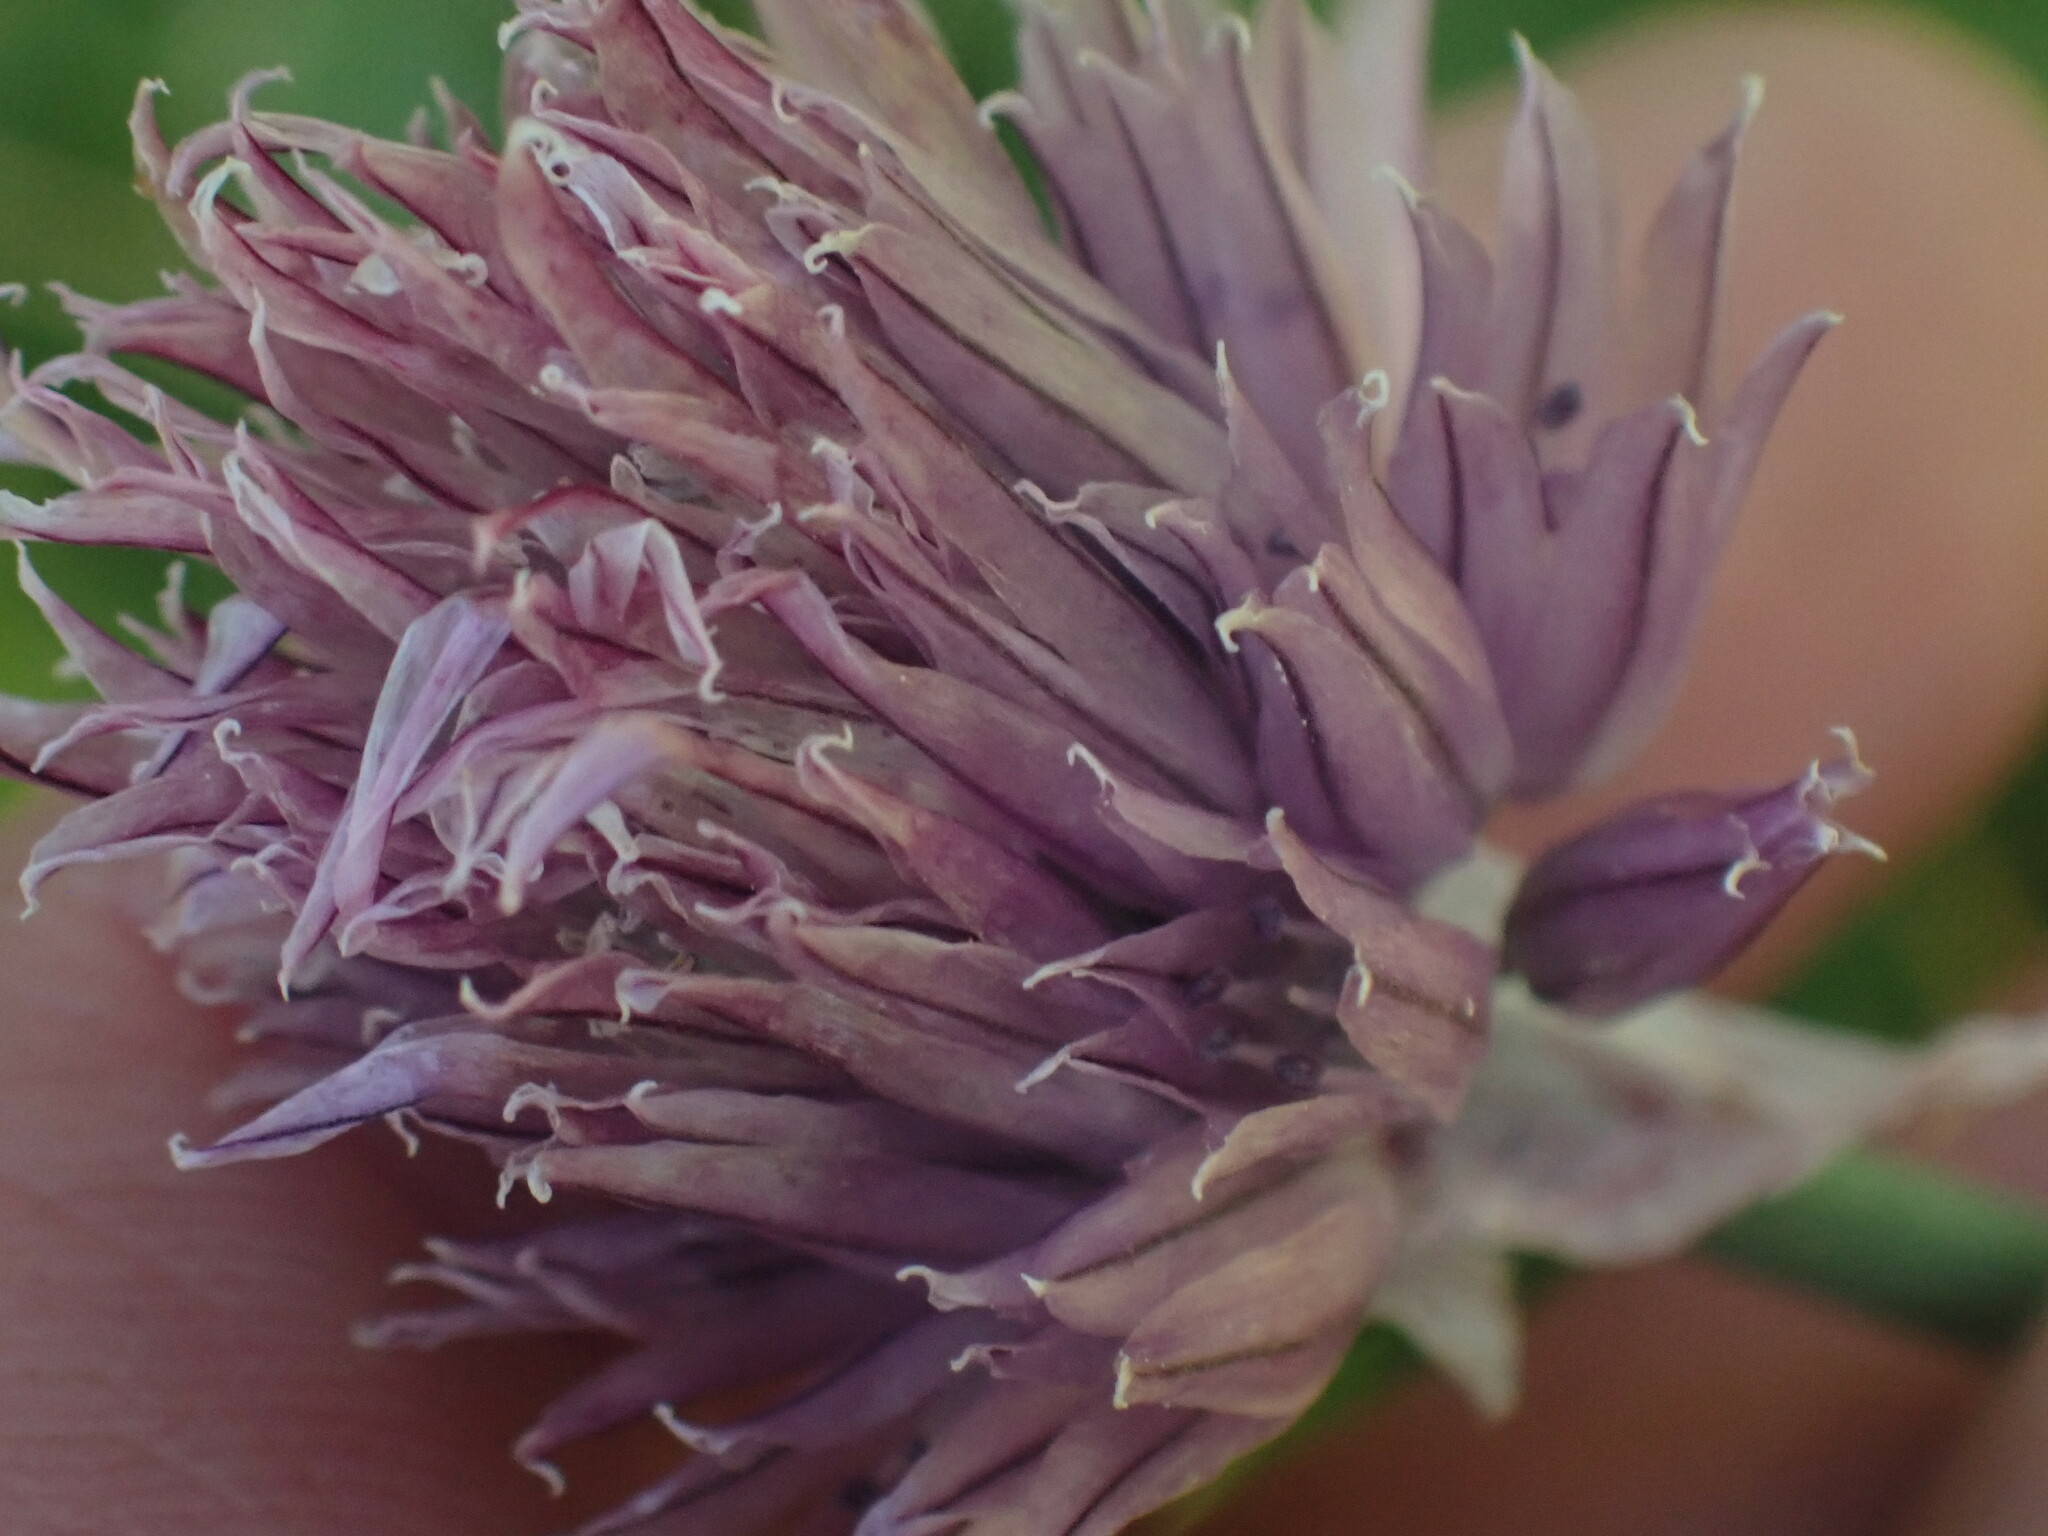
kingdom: Plantae
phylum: Tracheophyta
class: Liliopsida
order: Asparagales
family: Amaryllidaceae
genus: Allium
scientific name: Allium schoenoprasum
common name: Chives
